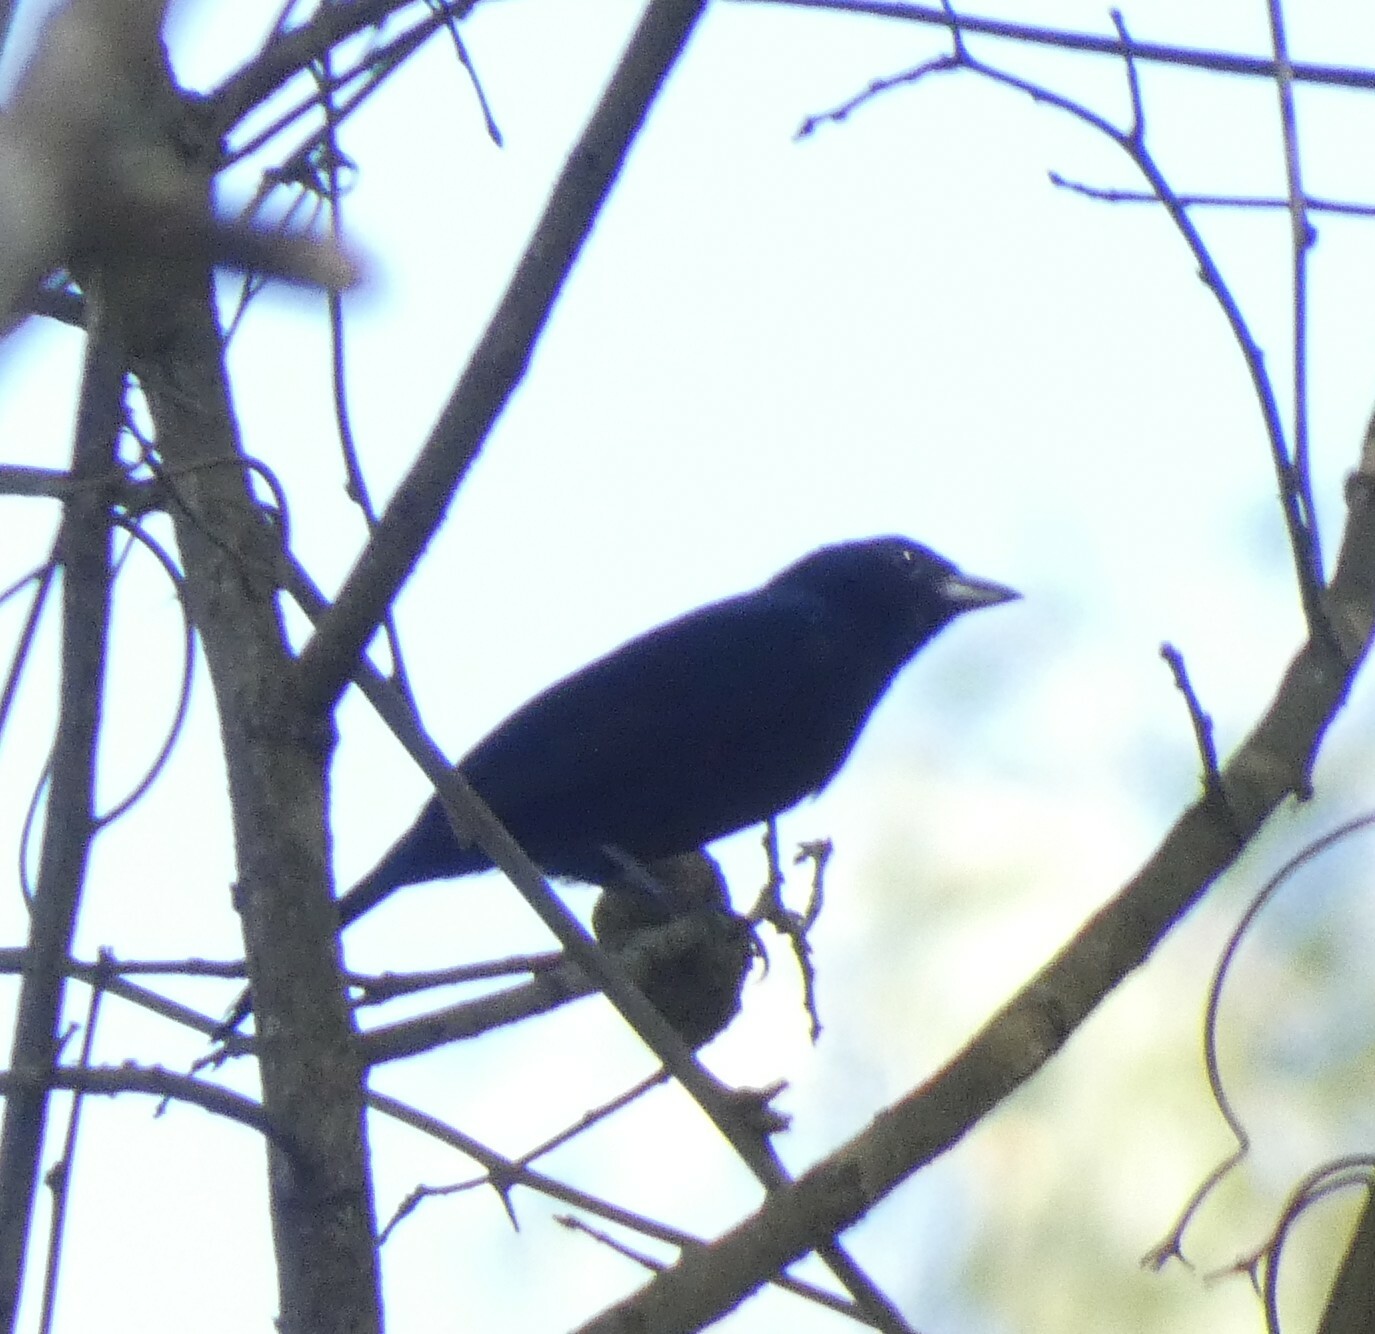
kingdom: Animalia
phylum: Chordata
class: Aves
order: Passeriformes
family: Thraupidae
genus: Tachyphonus
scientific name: Tachyphonus coronatus
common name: Ruby-crowned tanager
